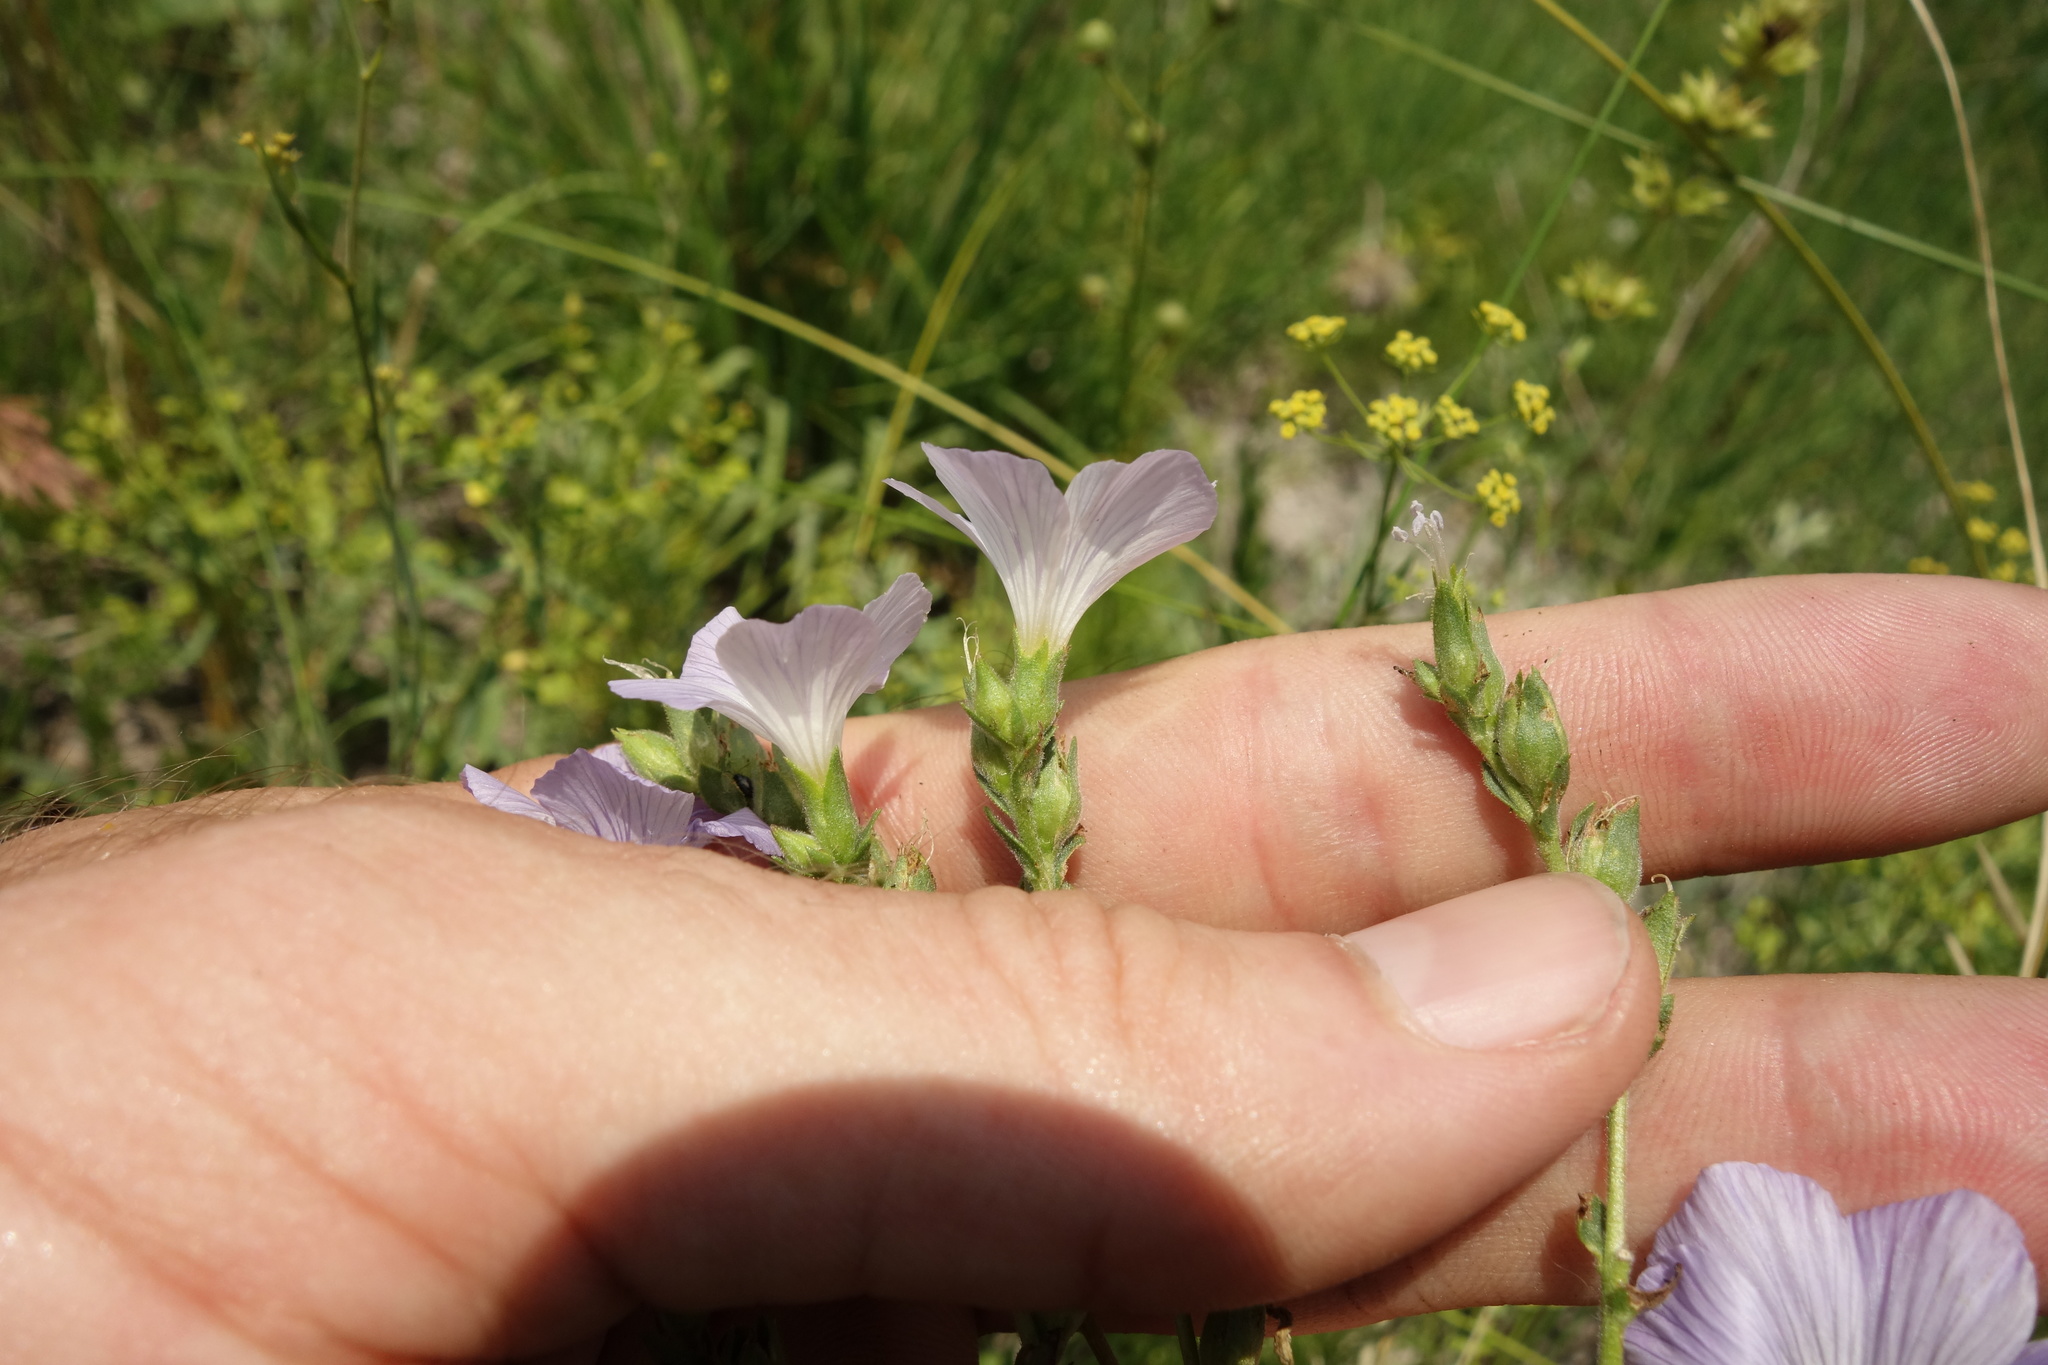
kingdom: Plantae
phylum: Tracheophyta
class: Magnoliopsida
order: Malpighiales
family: Linaceae
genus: Linum
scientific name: Linum hirsutum
